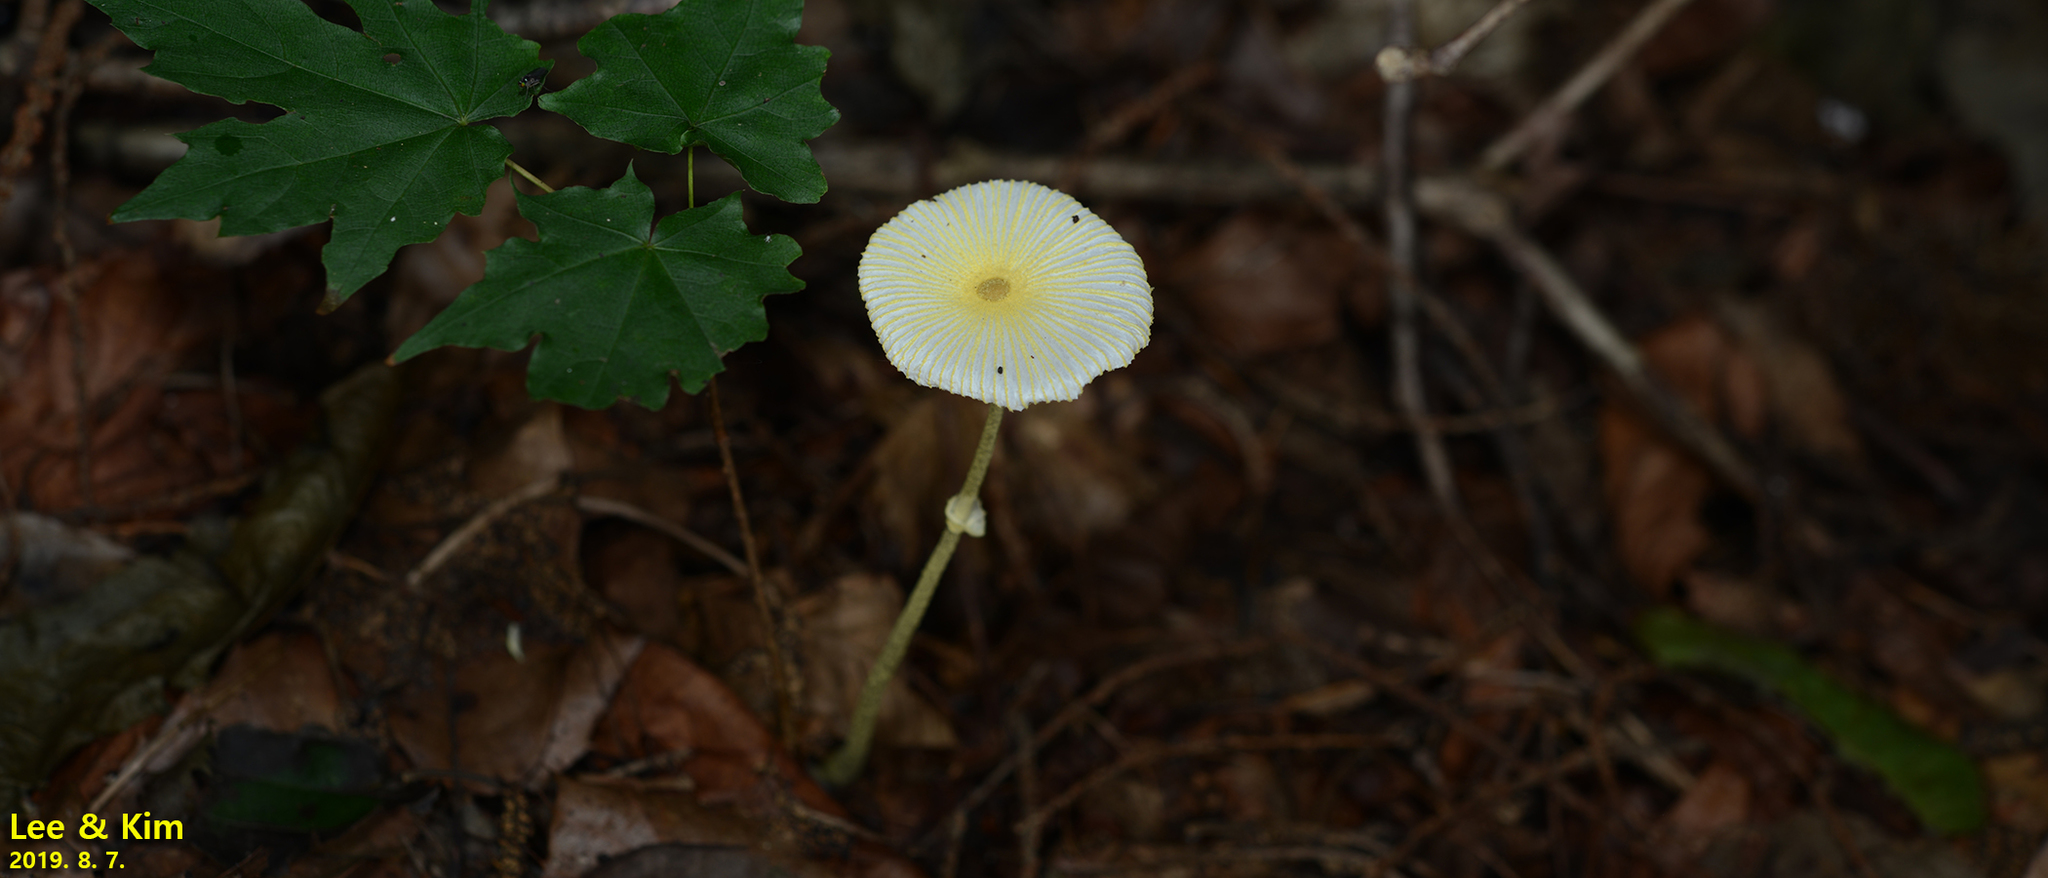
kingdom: Fungi
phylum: Basidiomycota
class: Agaricomycetes
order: Agaricales
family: Agaricaceae
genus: Leucocoprinus
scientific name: Leucocoprinus fragilissimus
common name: Fragile dapperling
